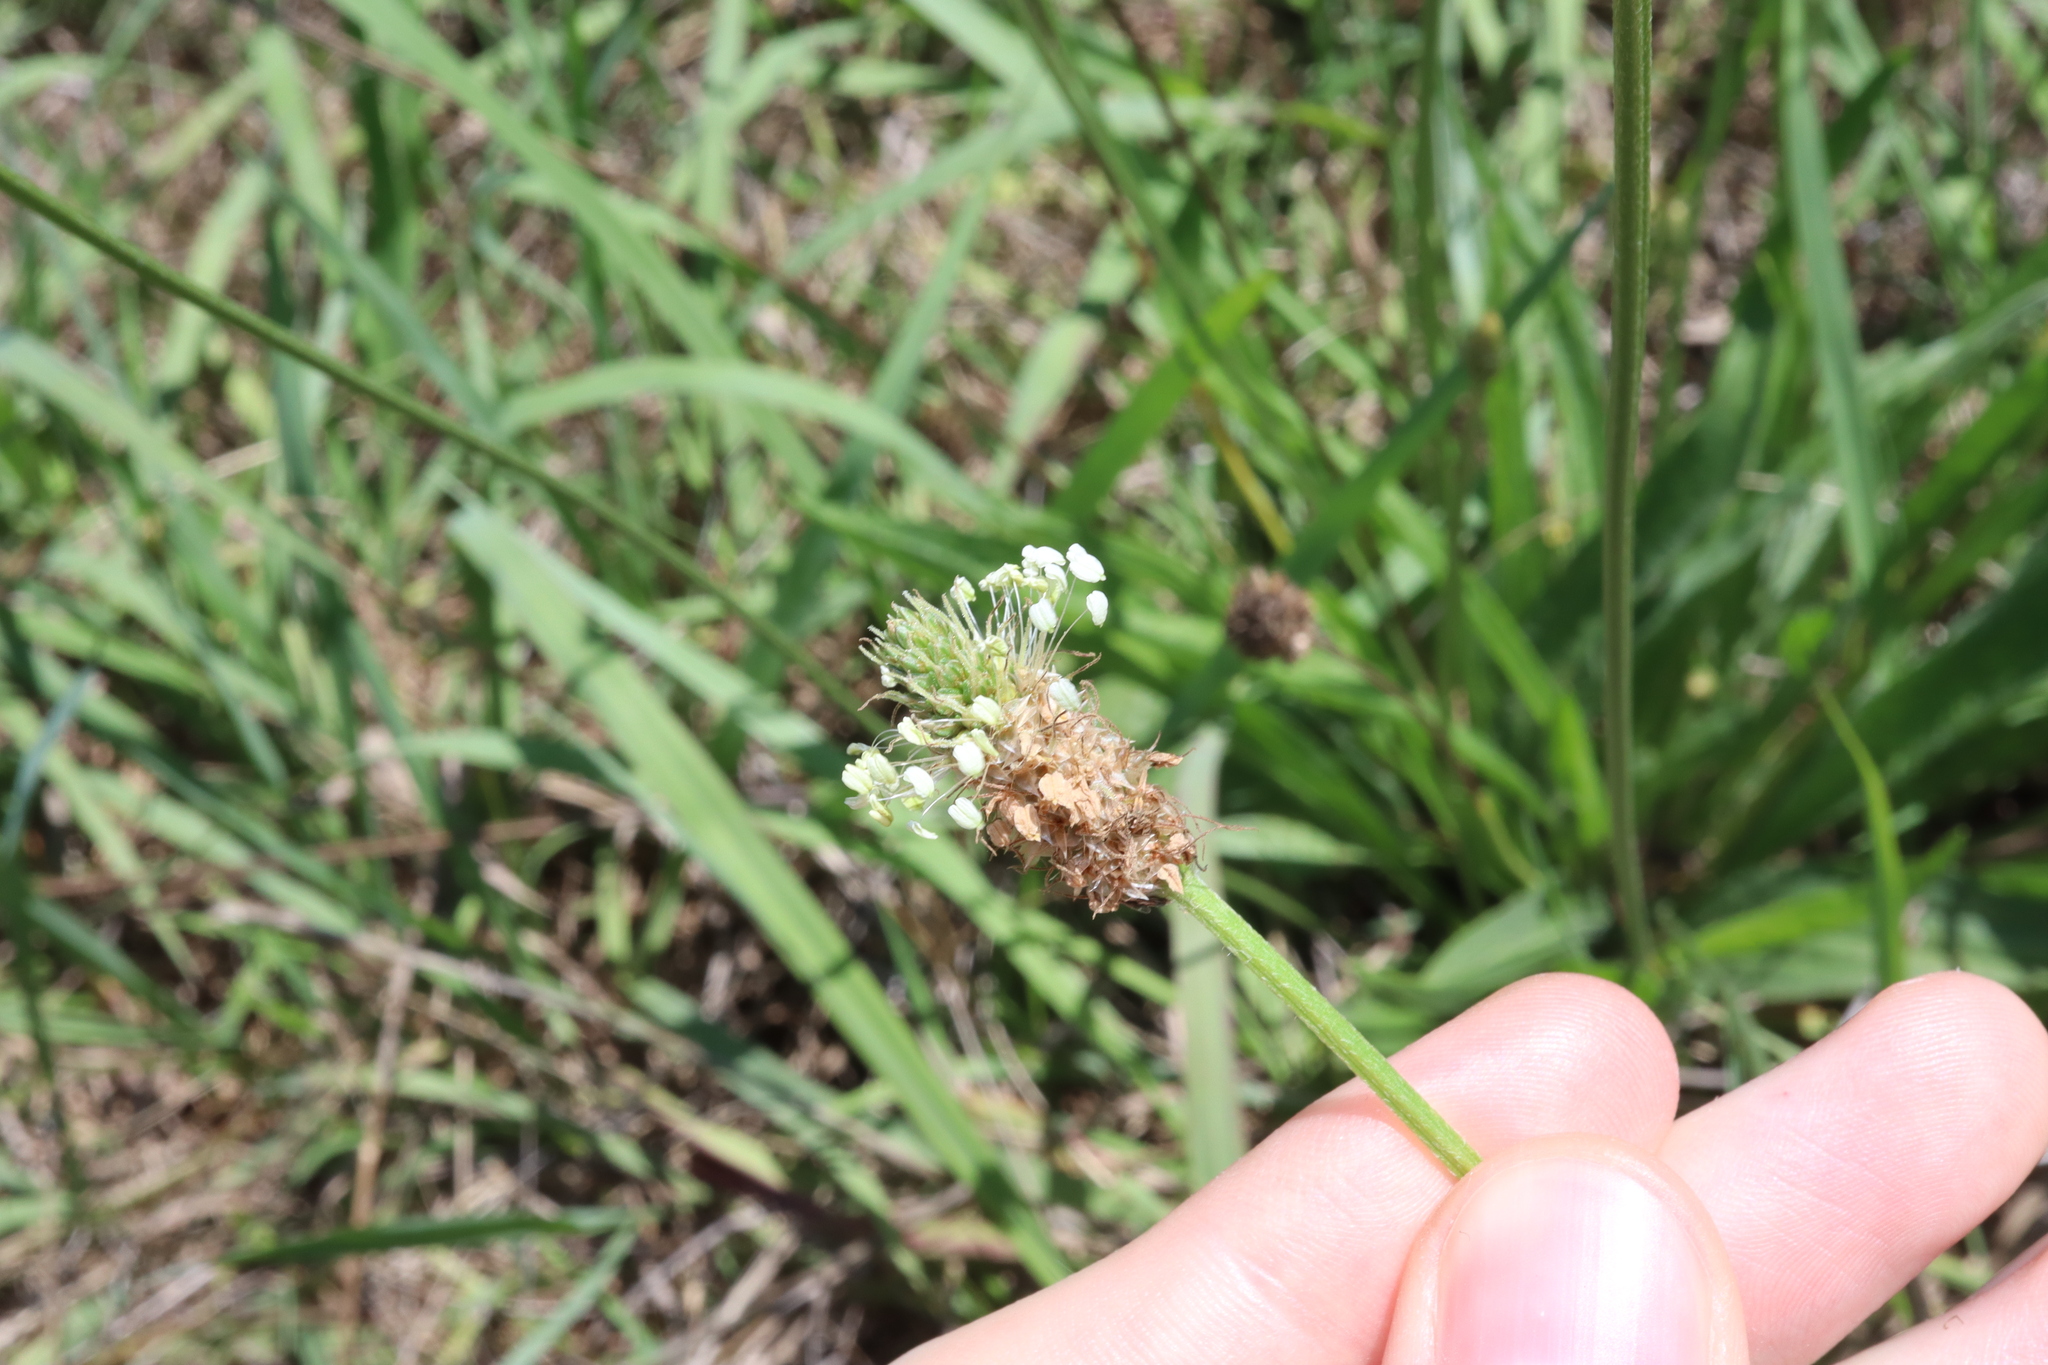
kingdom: Plantae
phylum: Tracheophyta
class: Magnoliopsida
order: Lamiales
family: Plantaginaceae
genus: Plantago
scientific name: Plantago lanceolata
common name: Ribwort plantain
